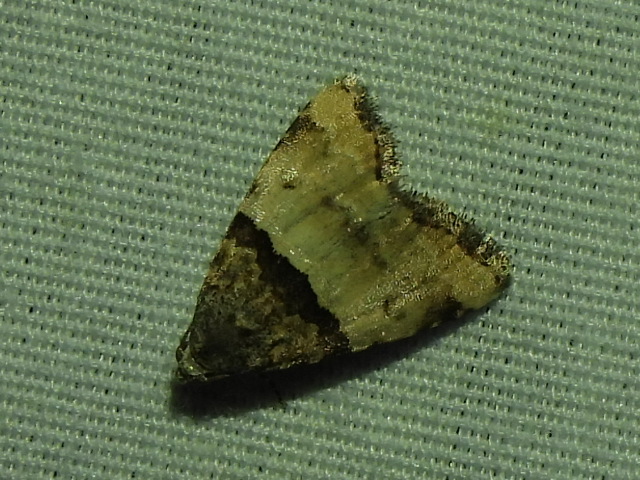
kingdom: Animalia
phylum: Arthropoda
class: Insecta
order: Lepidoptera
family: Noctuidae
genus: Cobubatha
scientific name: Cobubatha dividua
